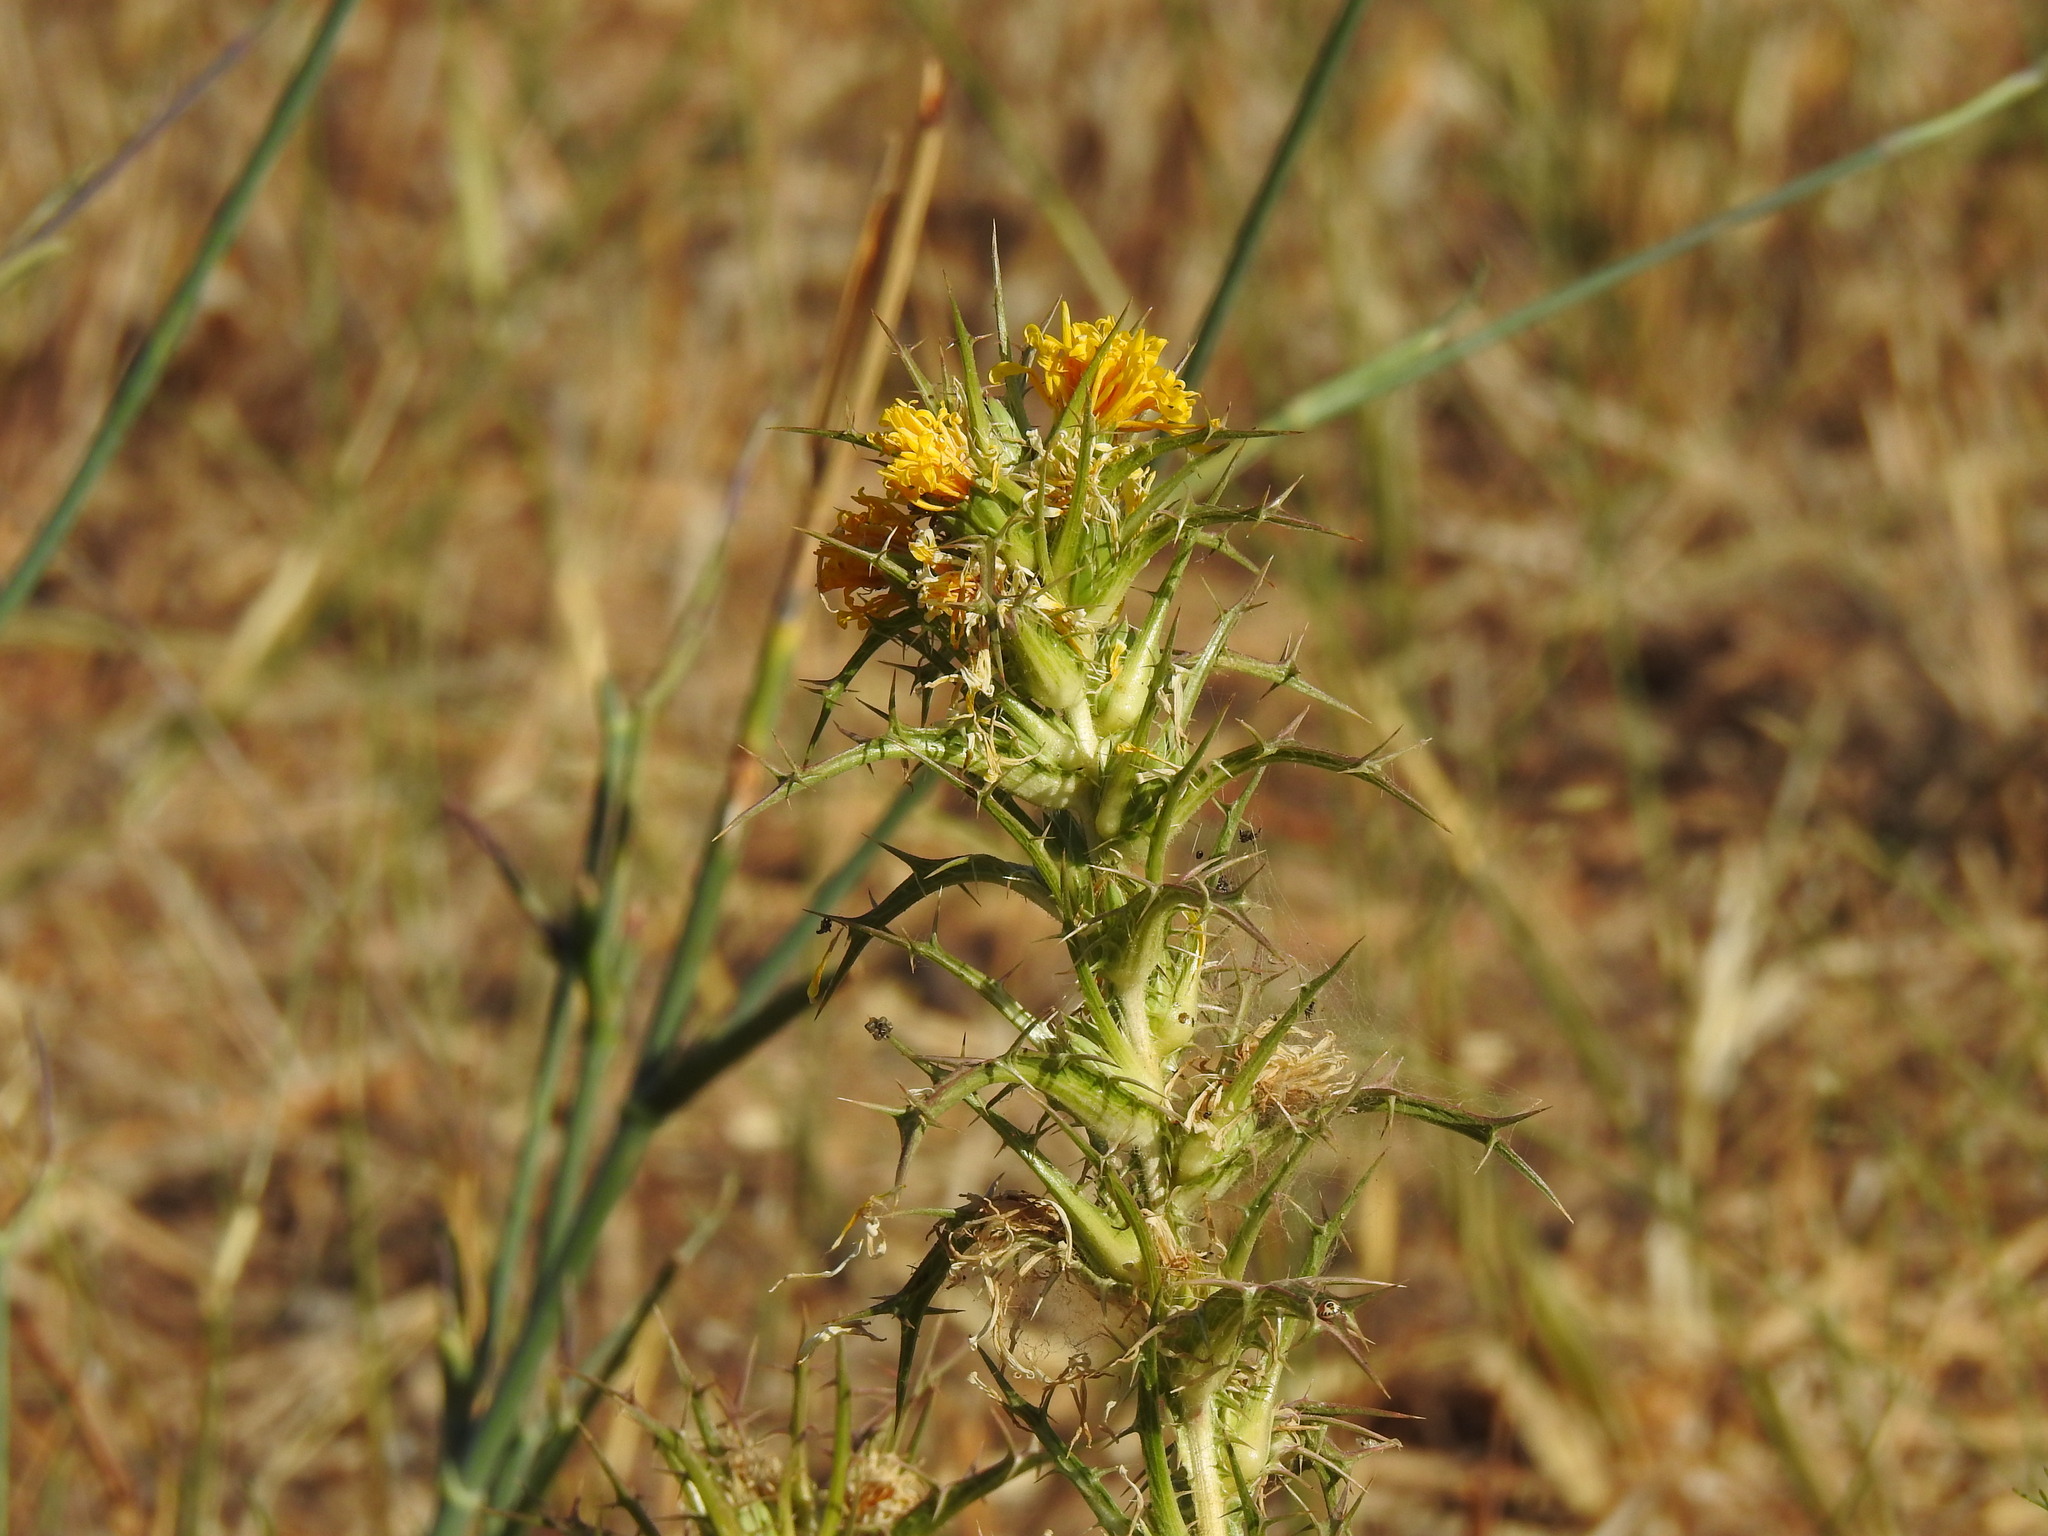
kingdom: Plantae
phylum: Tracheophyta
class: Magnoliopsida
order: Asterales
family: Asteraceae
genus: Scolymus
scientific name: Scolymus hispanicus
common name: Golden thistle
